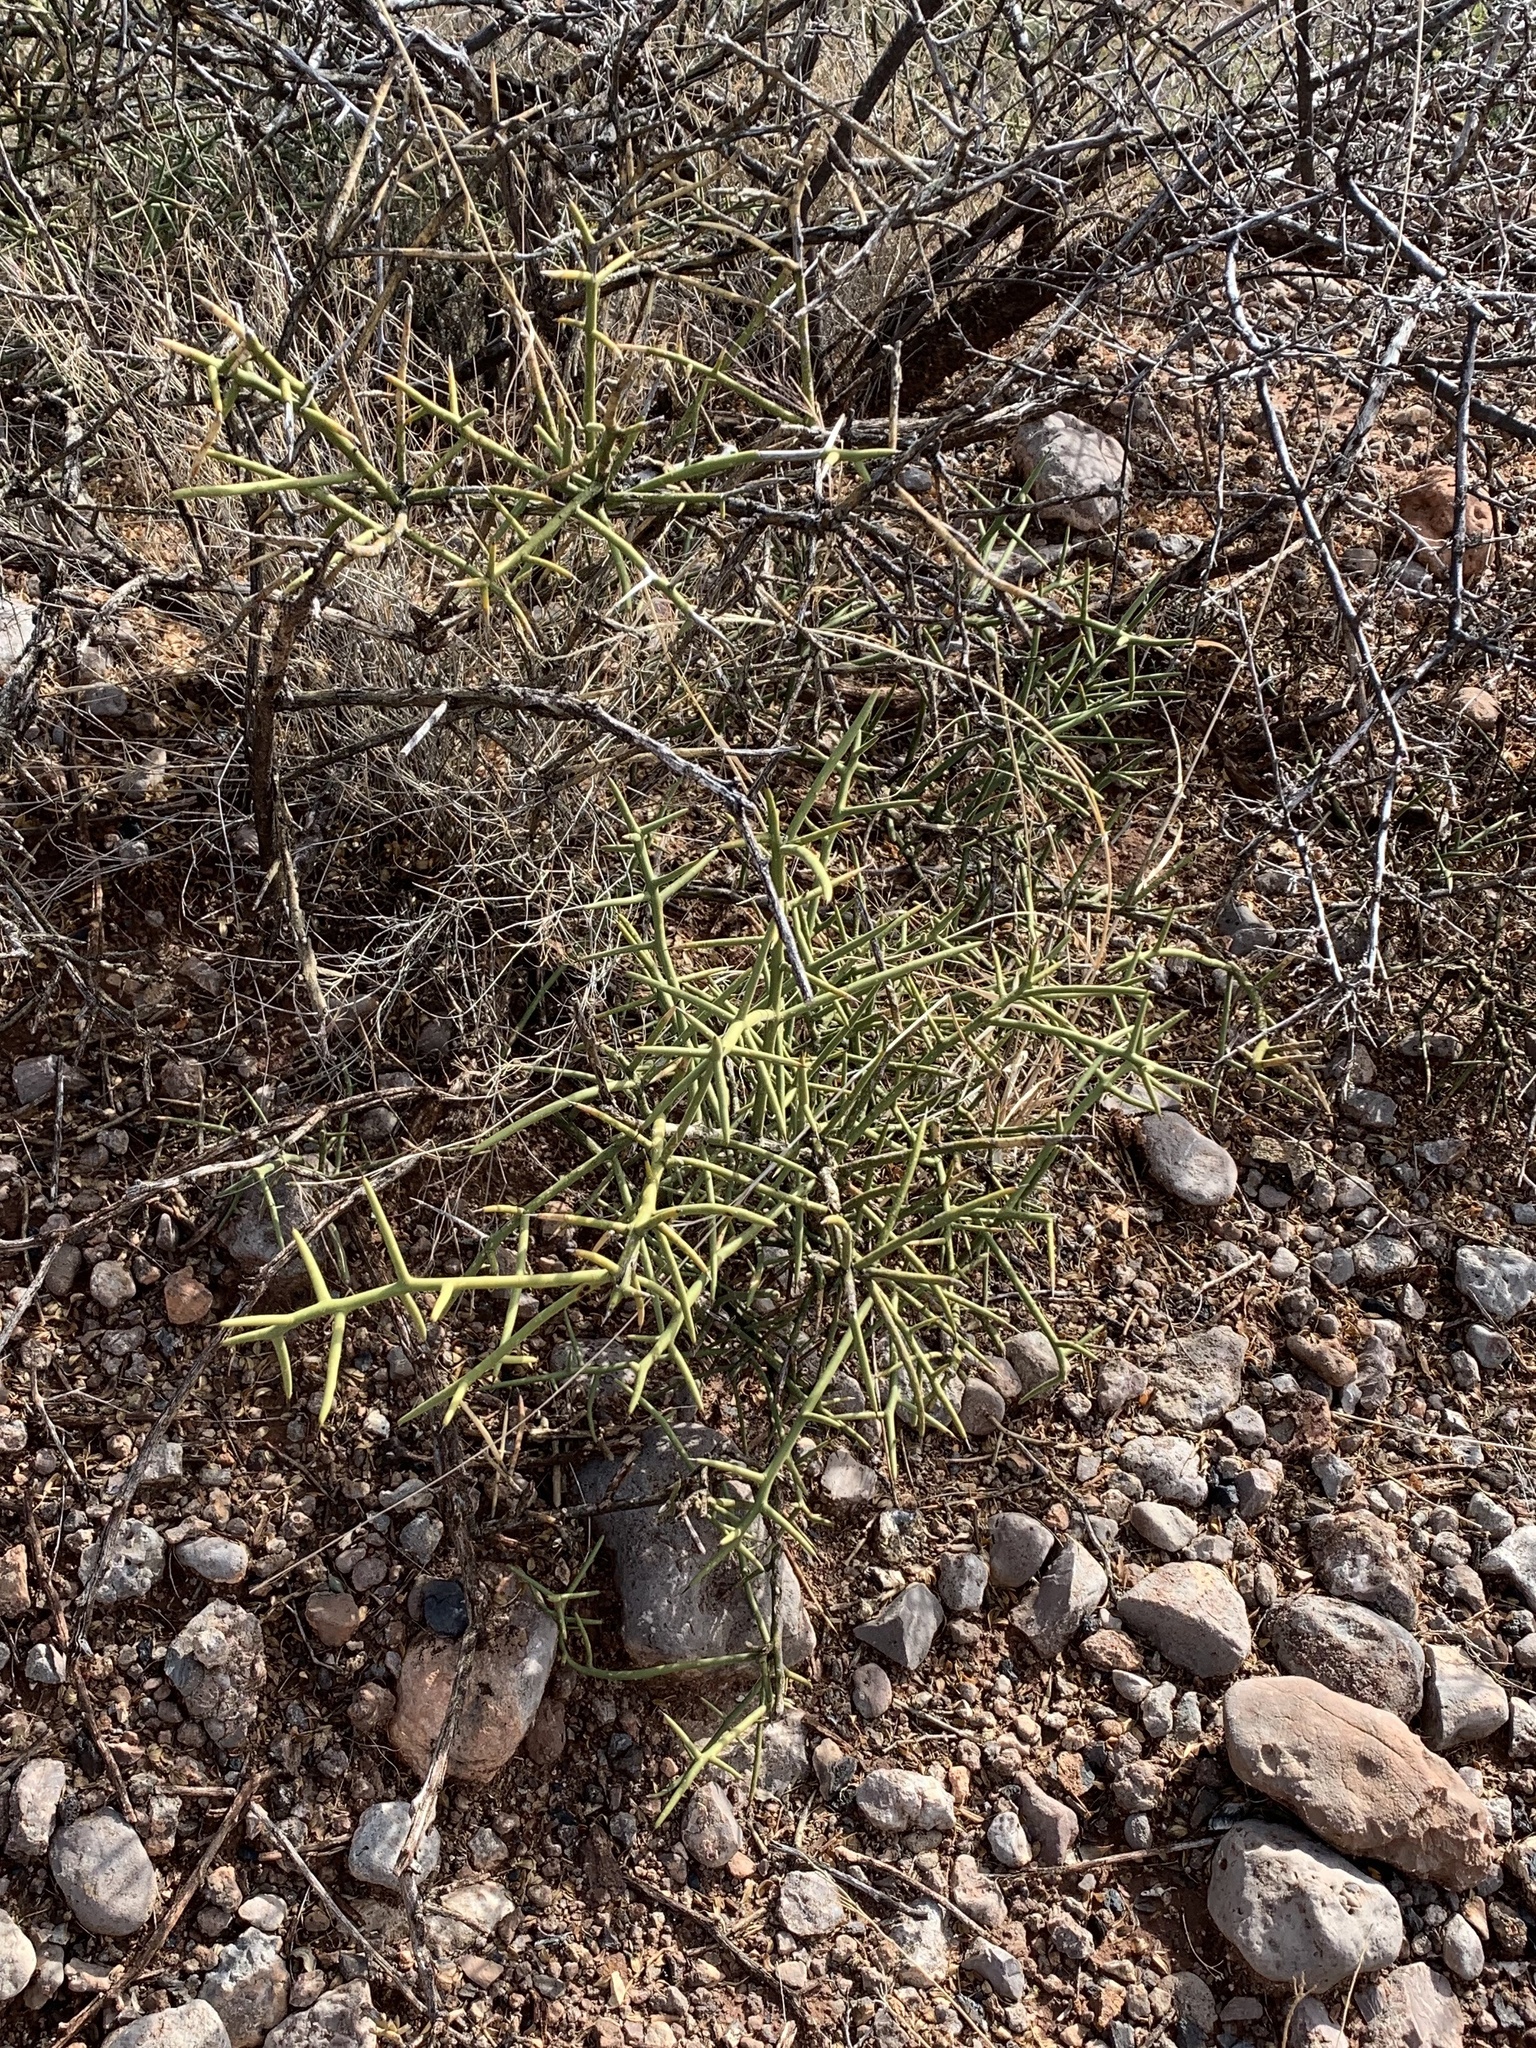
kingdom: Plantae
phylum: Tracheophyta
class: Magnoliopsida
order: Brassicales
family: Koeberliniaceae
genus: Koeberlinia
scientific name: Koeberlinia spinosa
